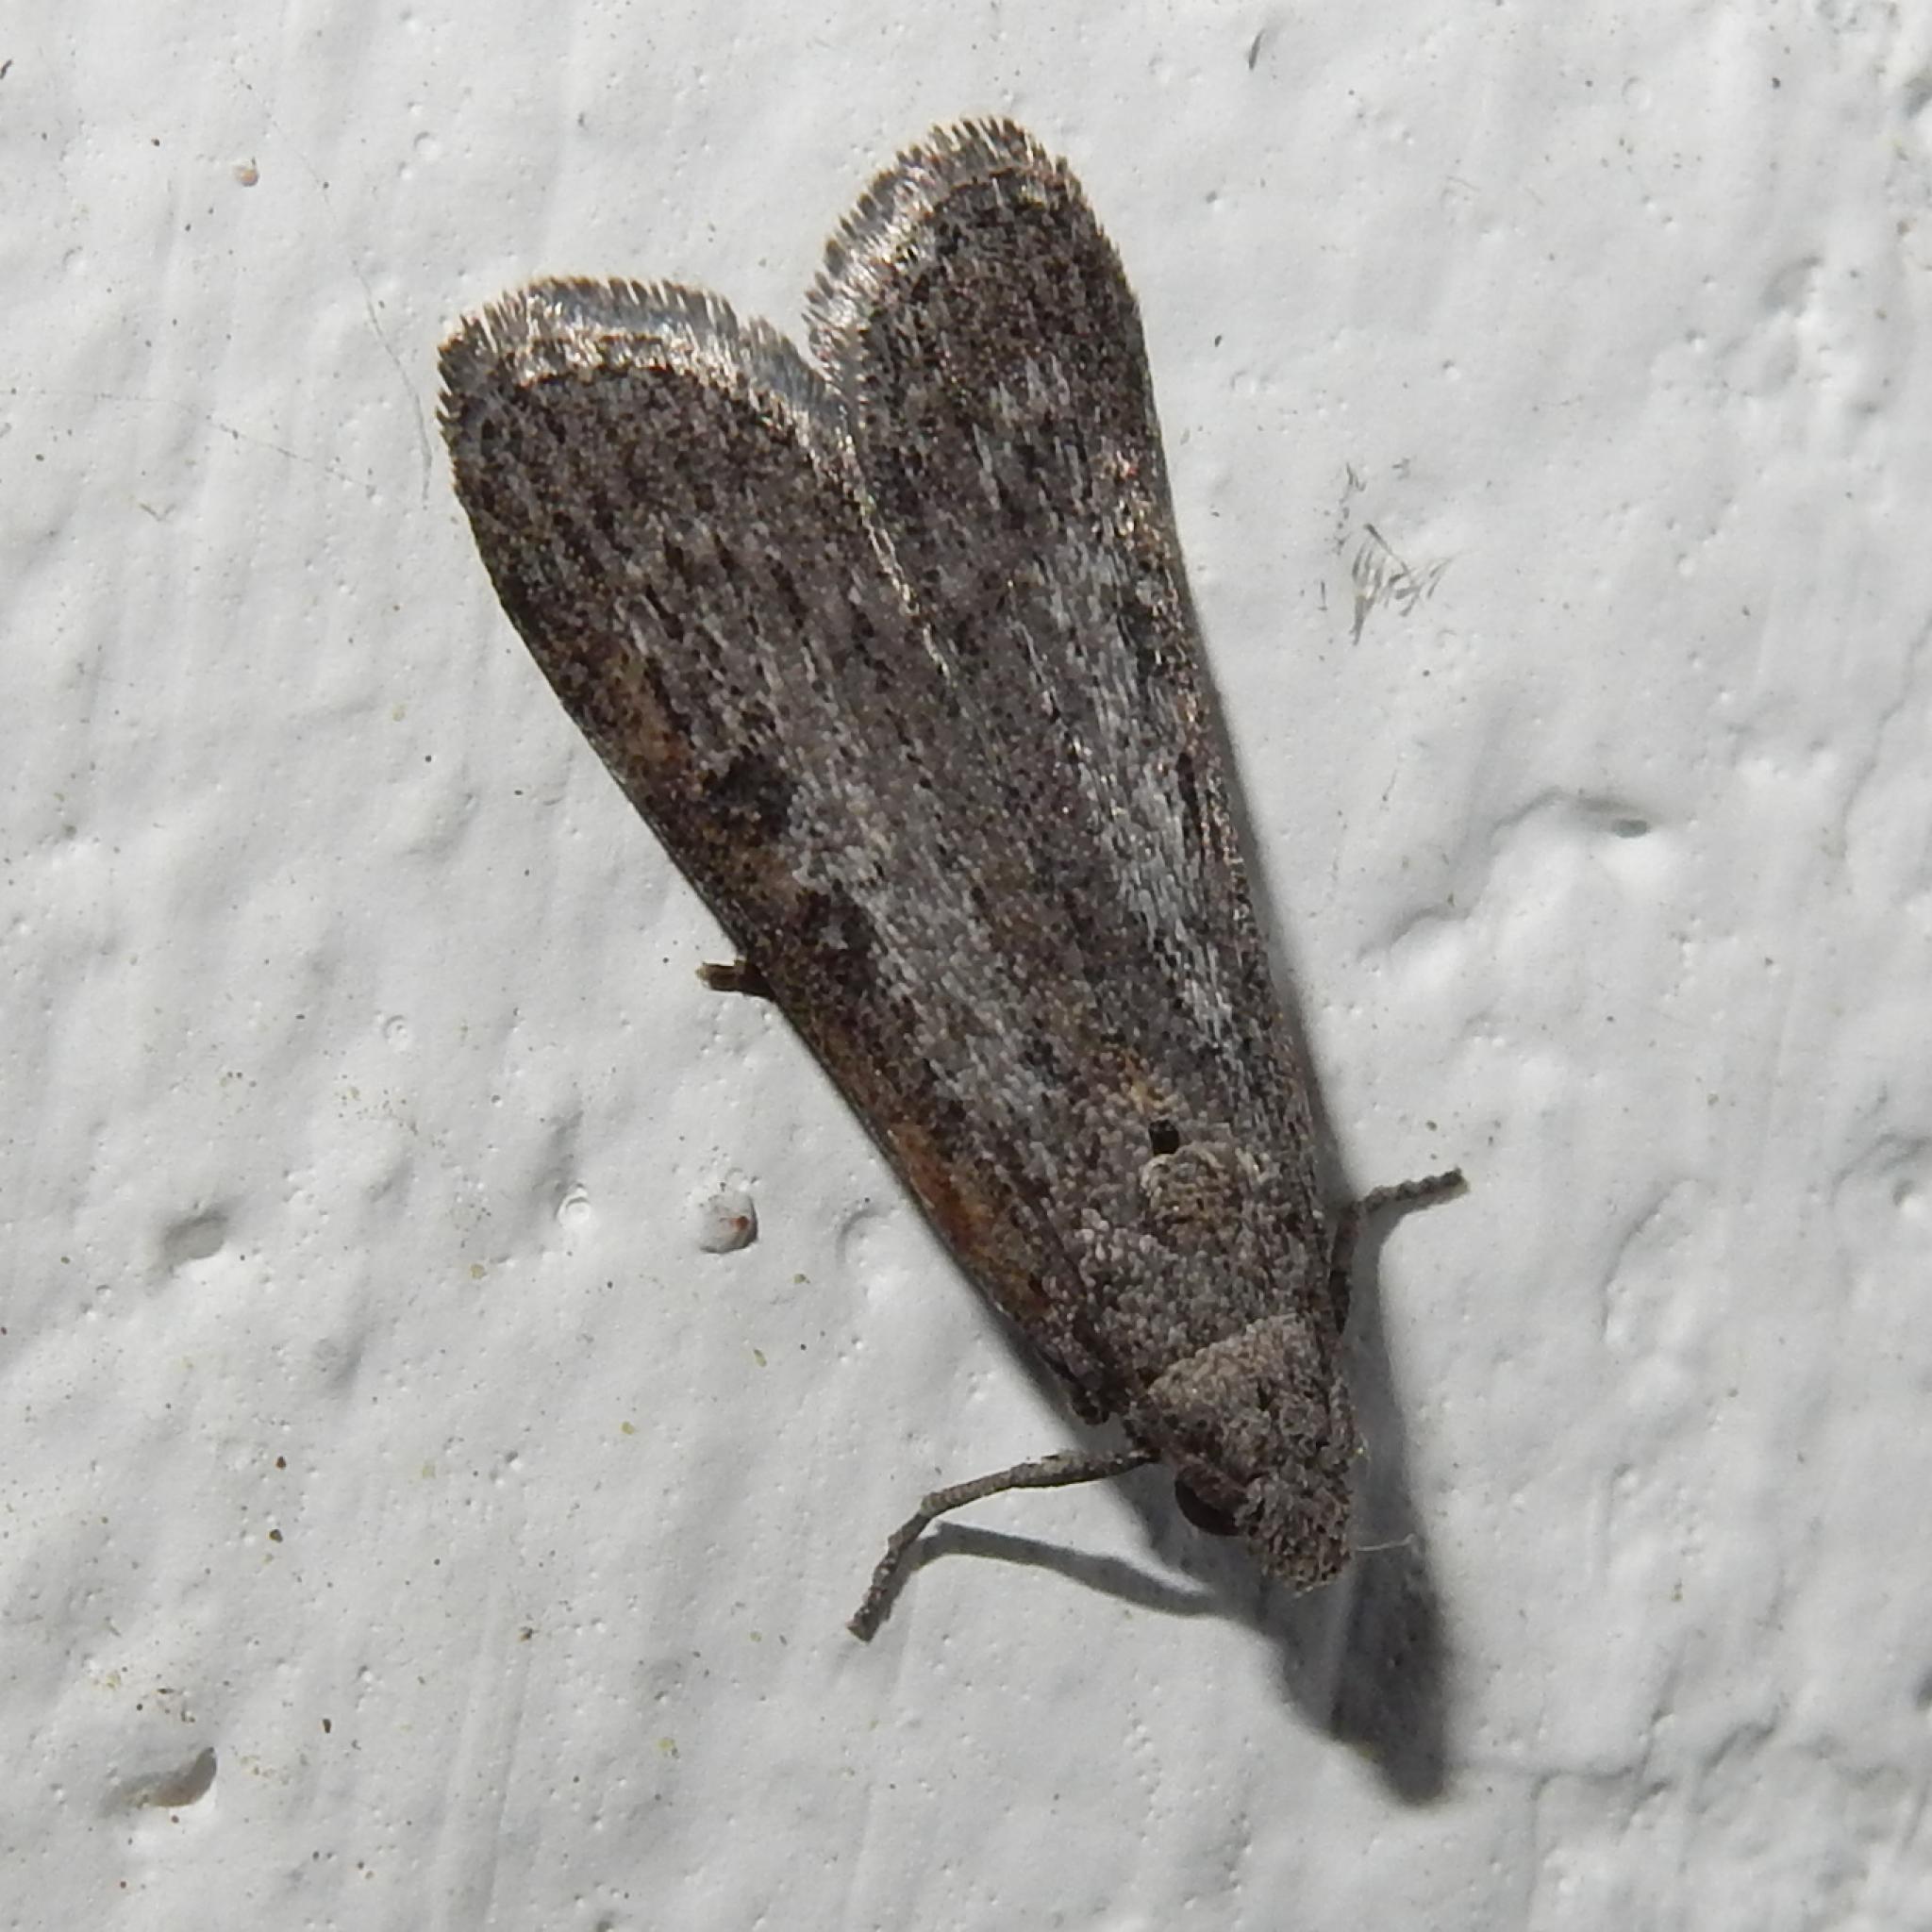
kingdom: Animalia
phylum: Arthropoda
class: Insecta
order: Lepidoptera
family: Pyralidae
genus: Lamoria
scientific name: Lamoria imbella
